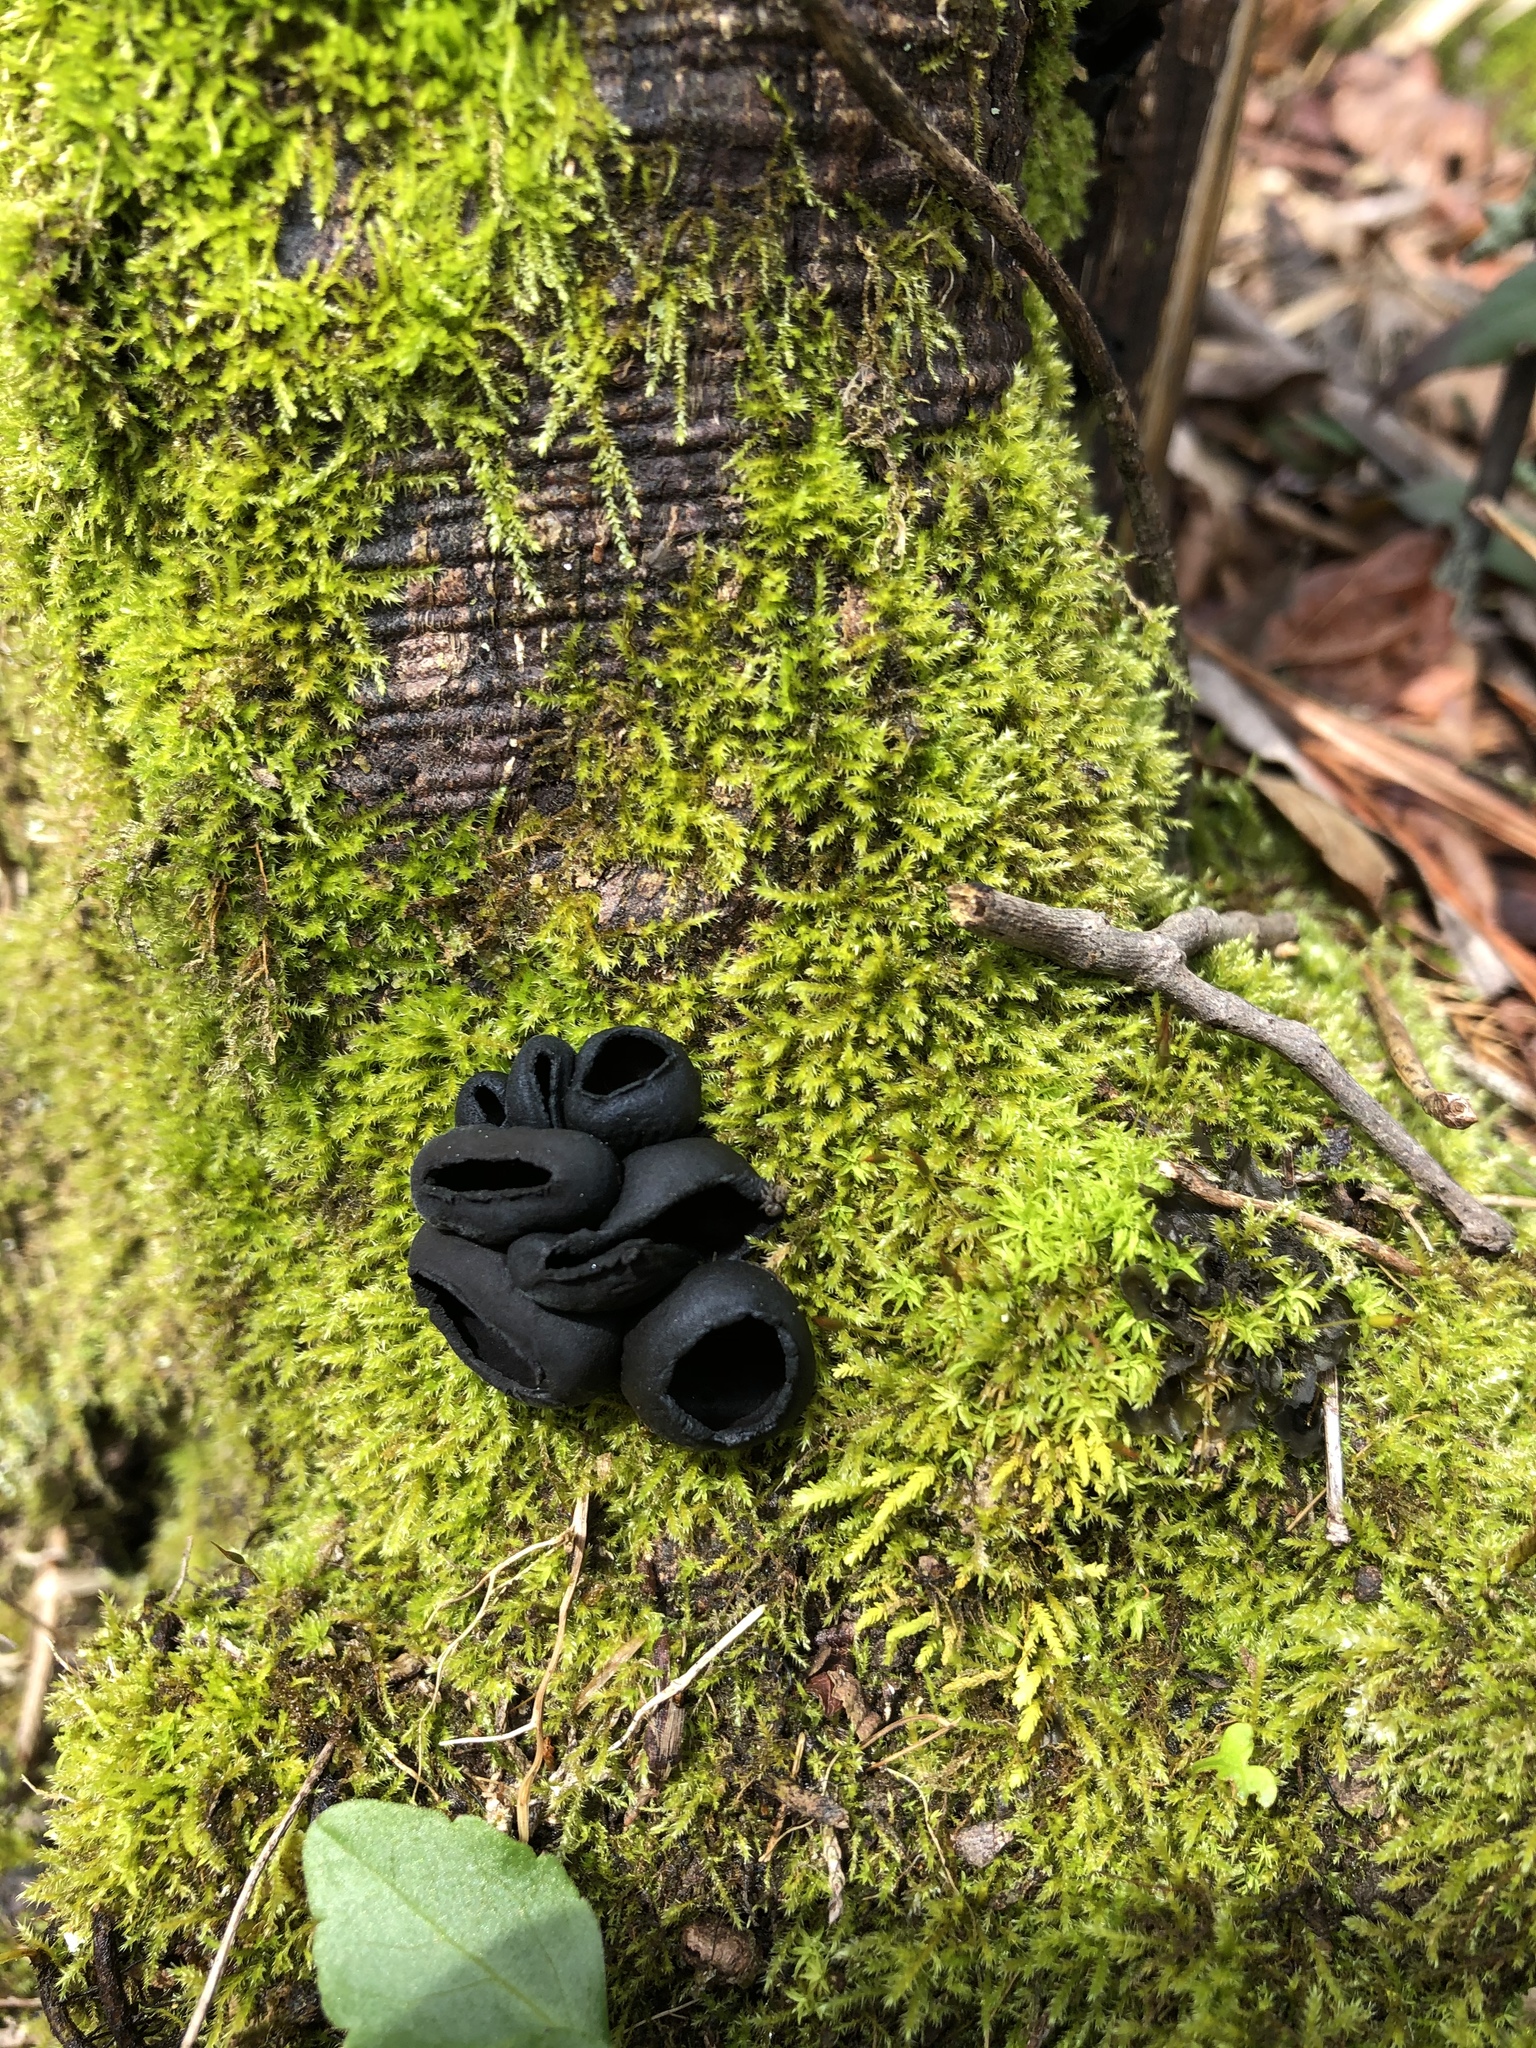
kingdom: Fungi
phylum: Ascomycota
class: Pezizomycetes
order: Pezizales
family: Sarcosomataceae
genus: Urnula
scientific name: Urnula craterium
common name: Devil's urn
